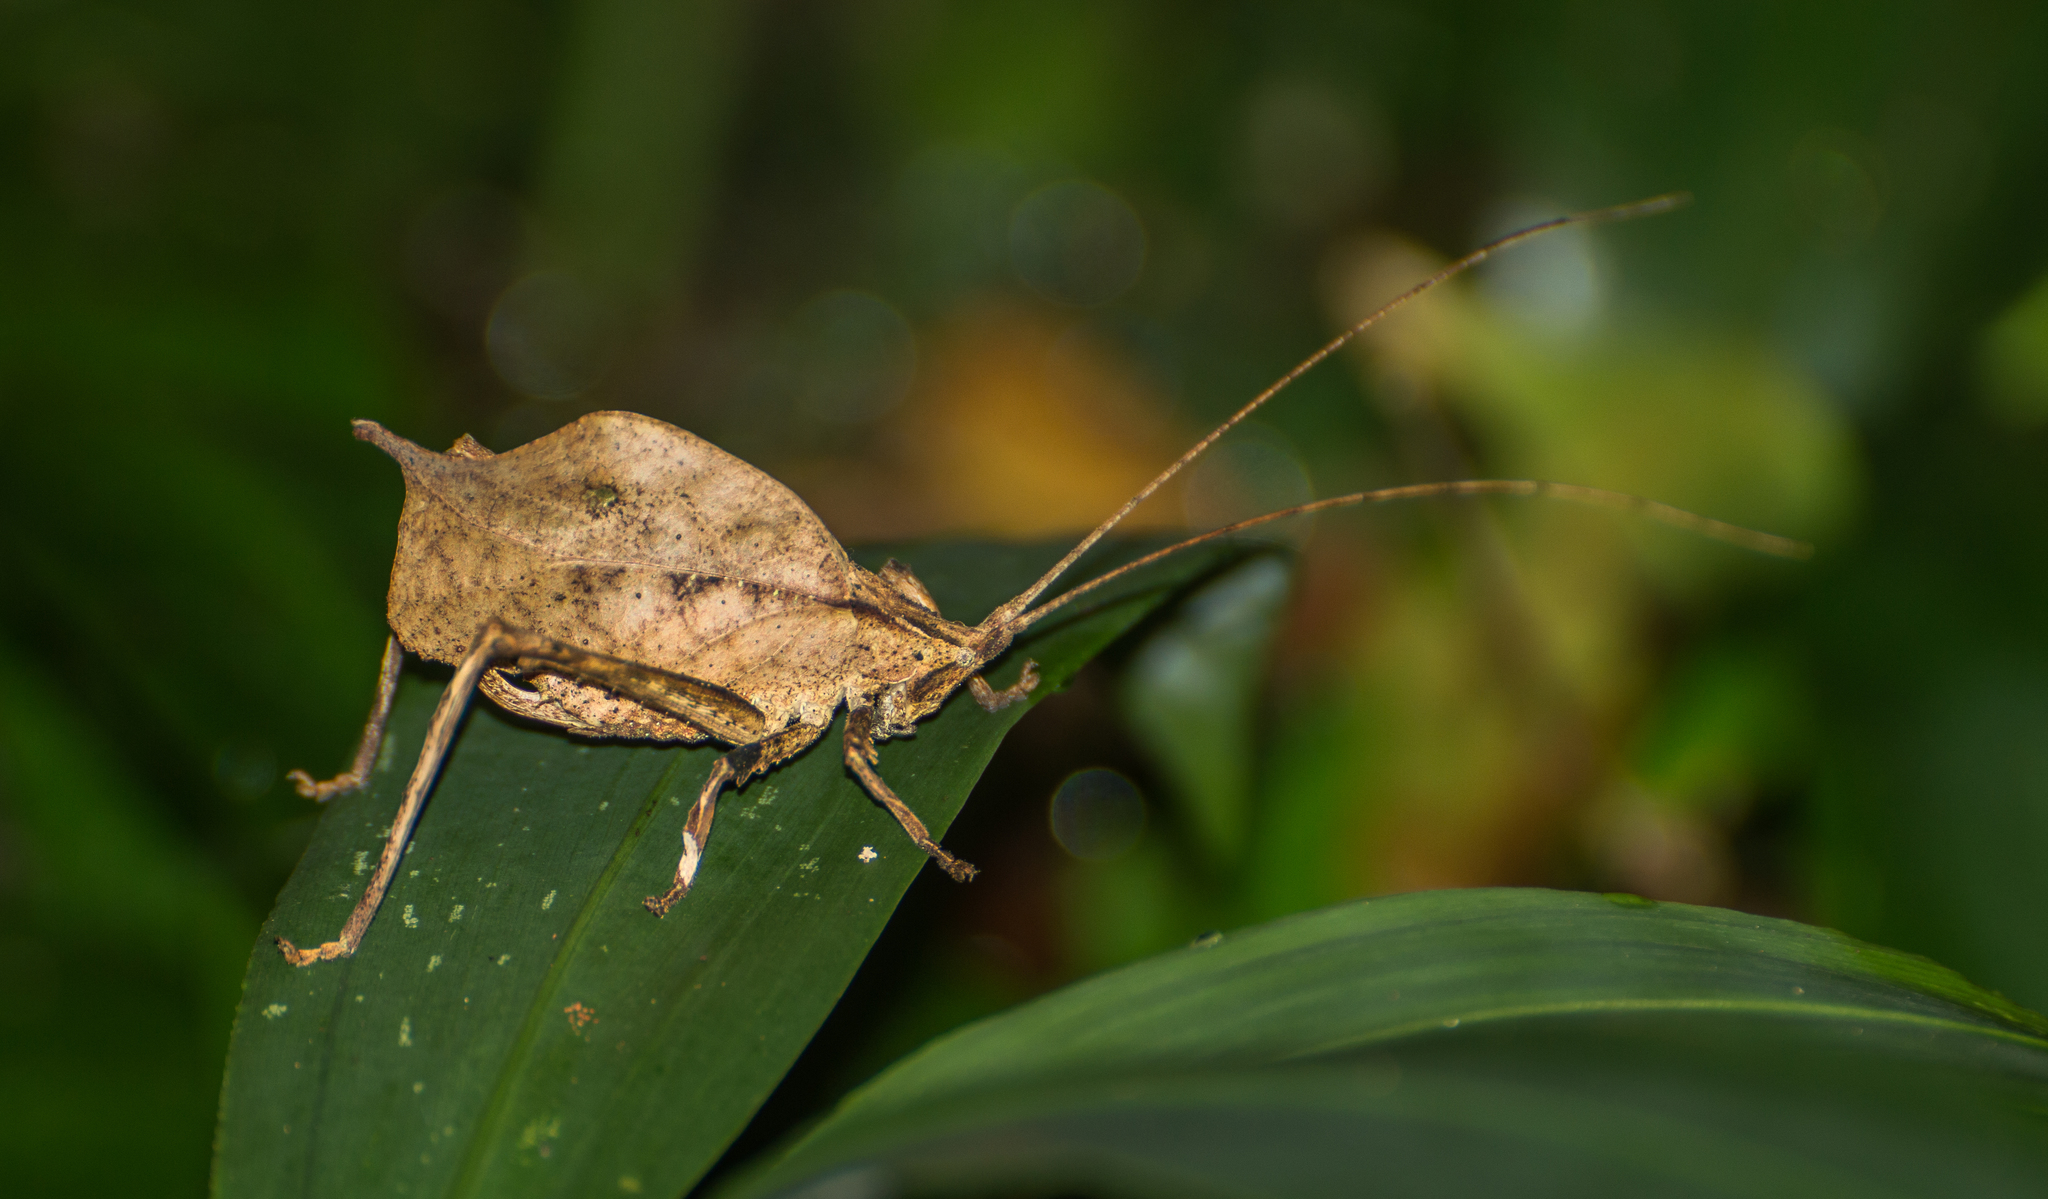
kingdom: Animalia
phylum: Arthropoda
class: Insecta
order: Orthoptera
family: Tettigoniidae
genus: Typophyllum
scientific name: Typophyllum inflatum
